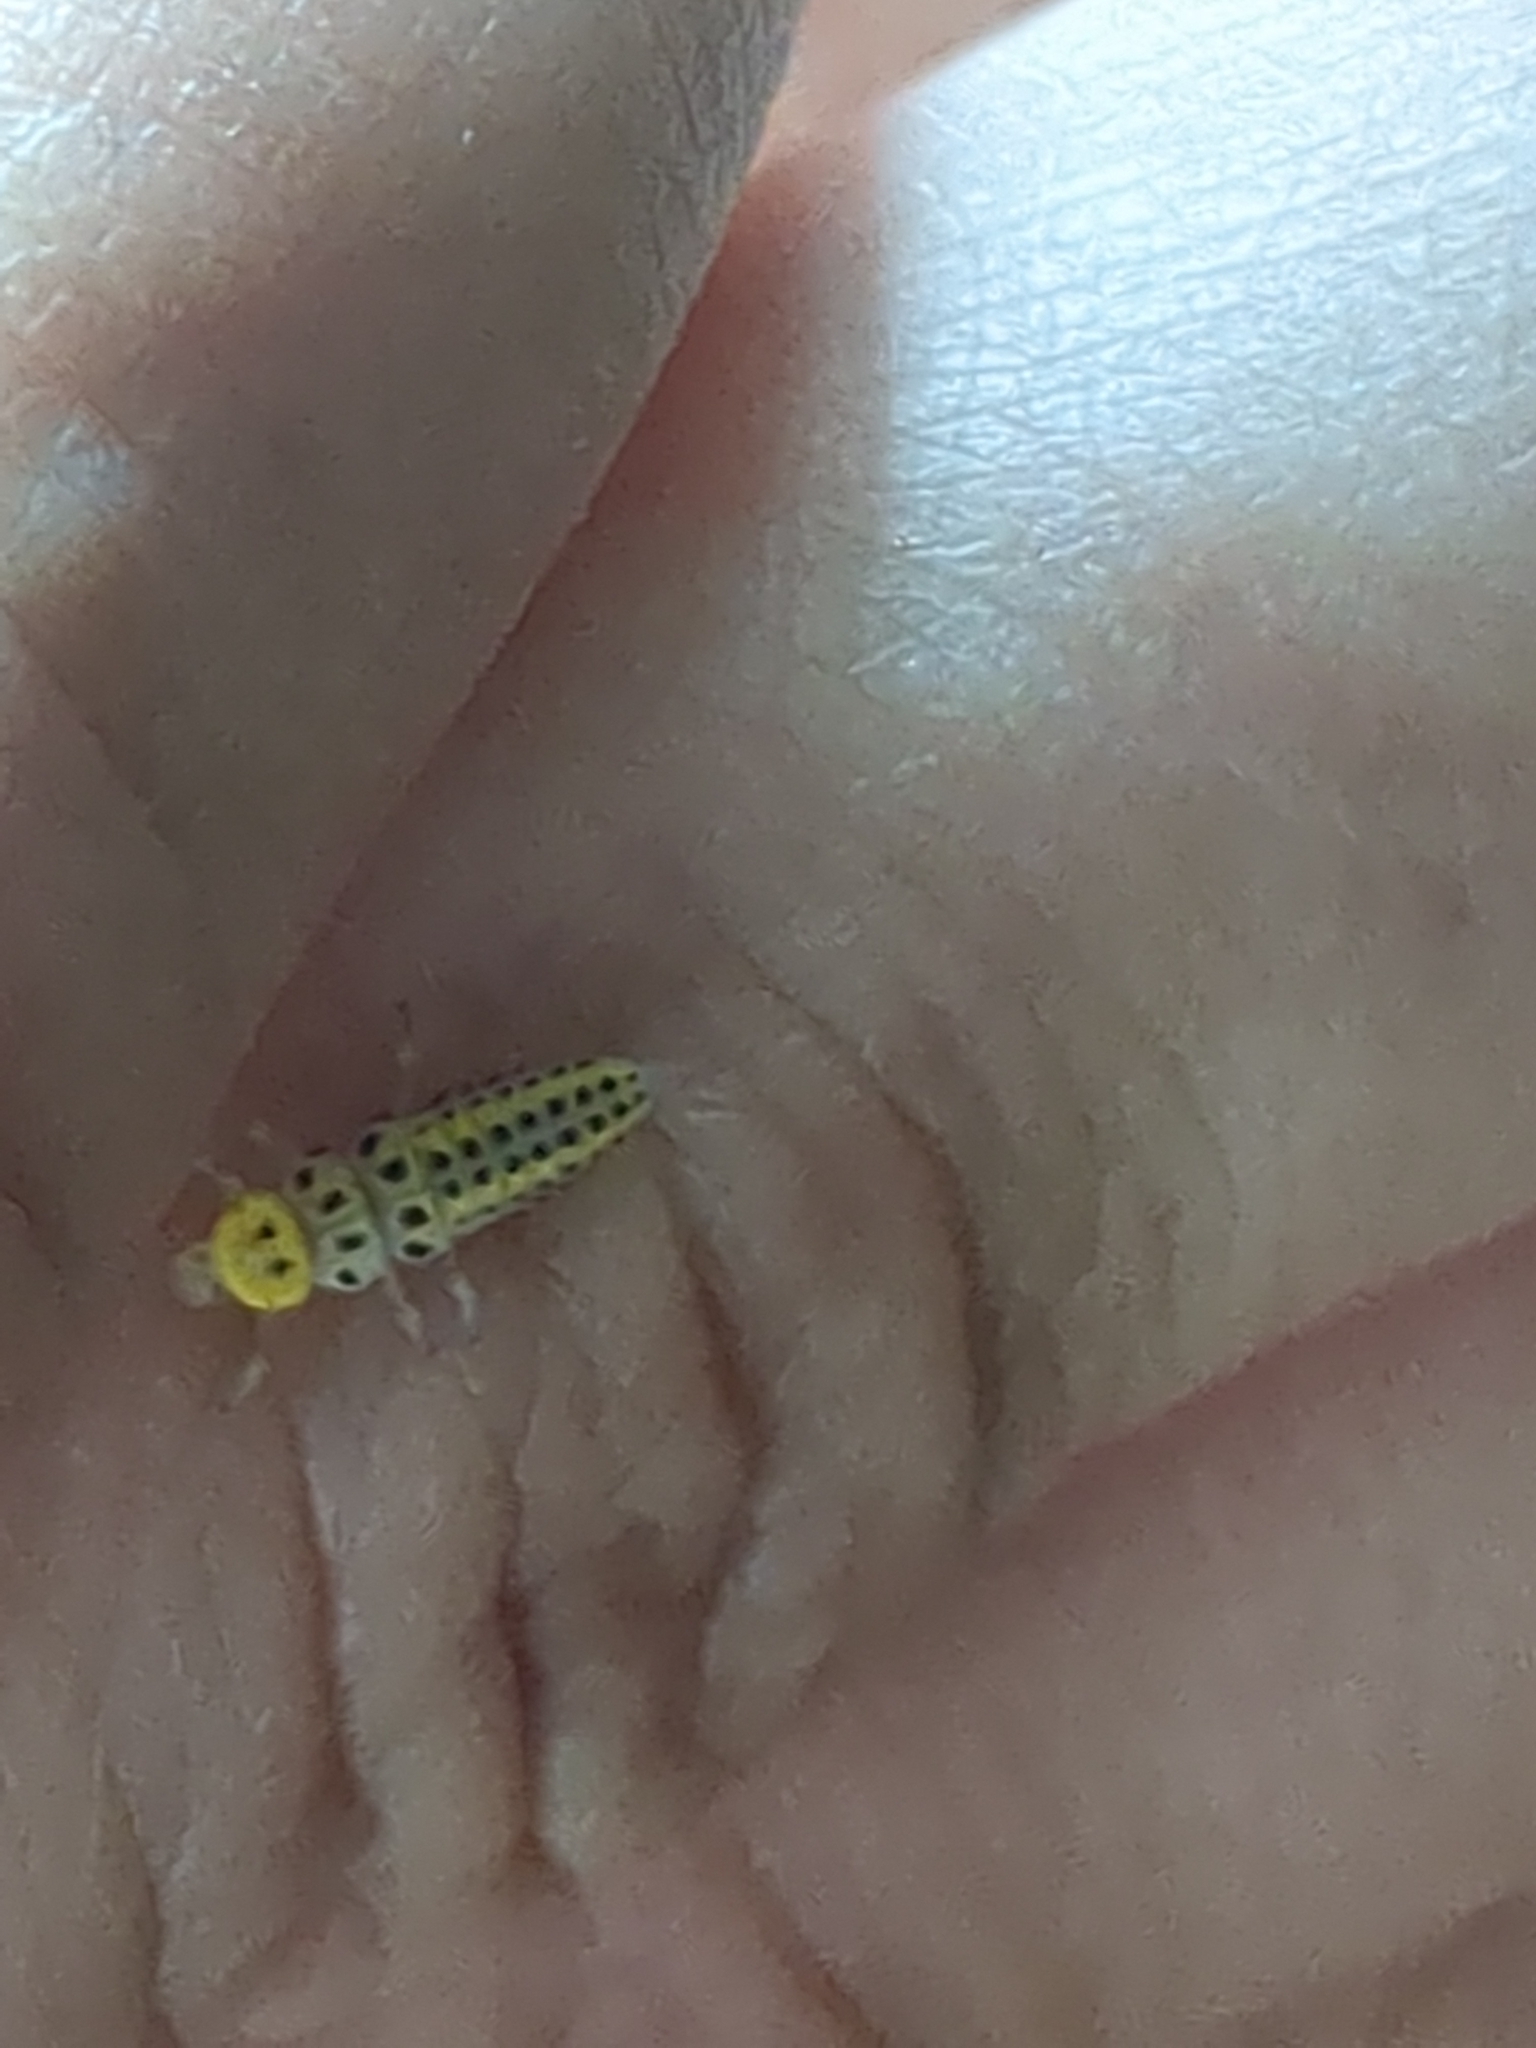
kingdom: Animalia
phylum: Arthropoda
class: Insecta
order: Coleoptera
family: Coccinellidae
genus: Halyzia
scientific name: Halyzia sedecimguttata
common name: Orange ladybird
